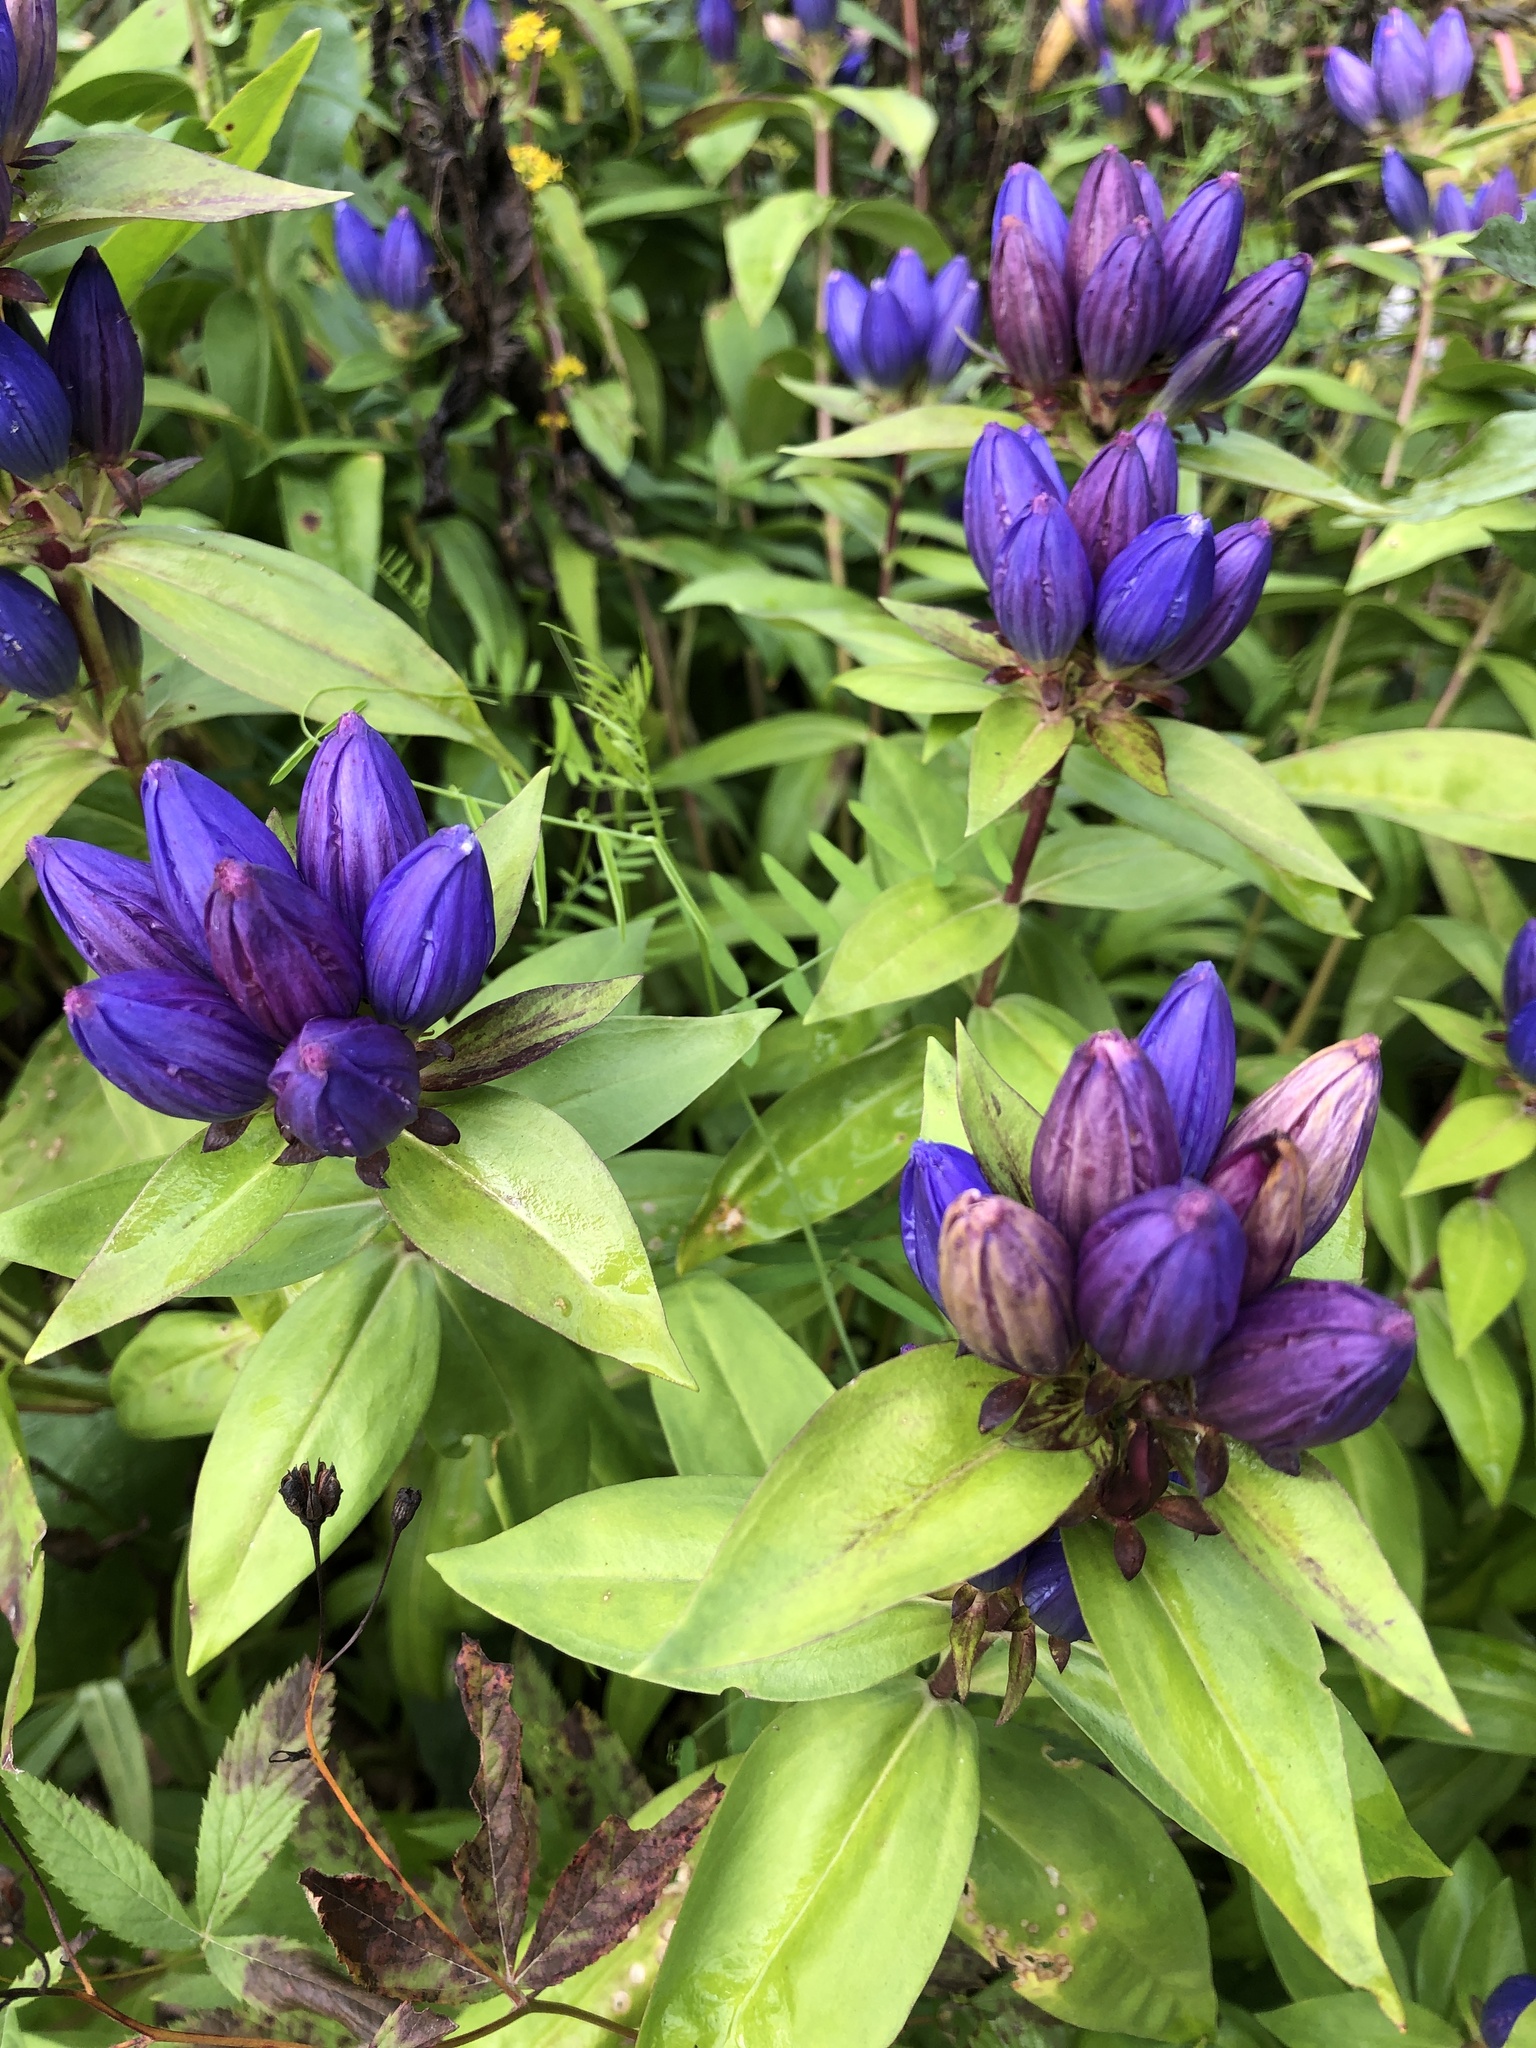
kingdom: Plantae
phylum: Tracheophyta
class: Magnoliopsida
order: Gentianales
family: Gentianaceae
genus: Gentiana
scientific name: Gentiana andrewsii
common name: Bottle gentian
